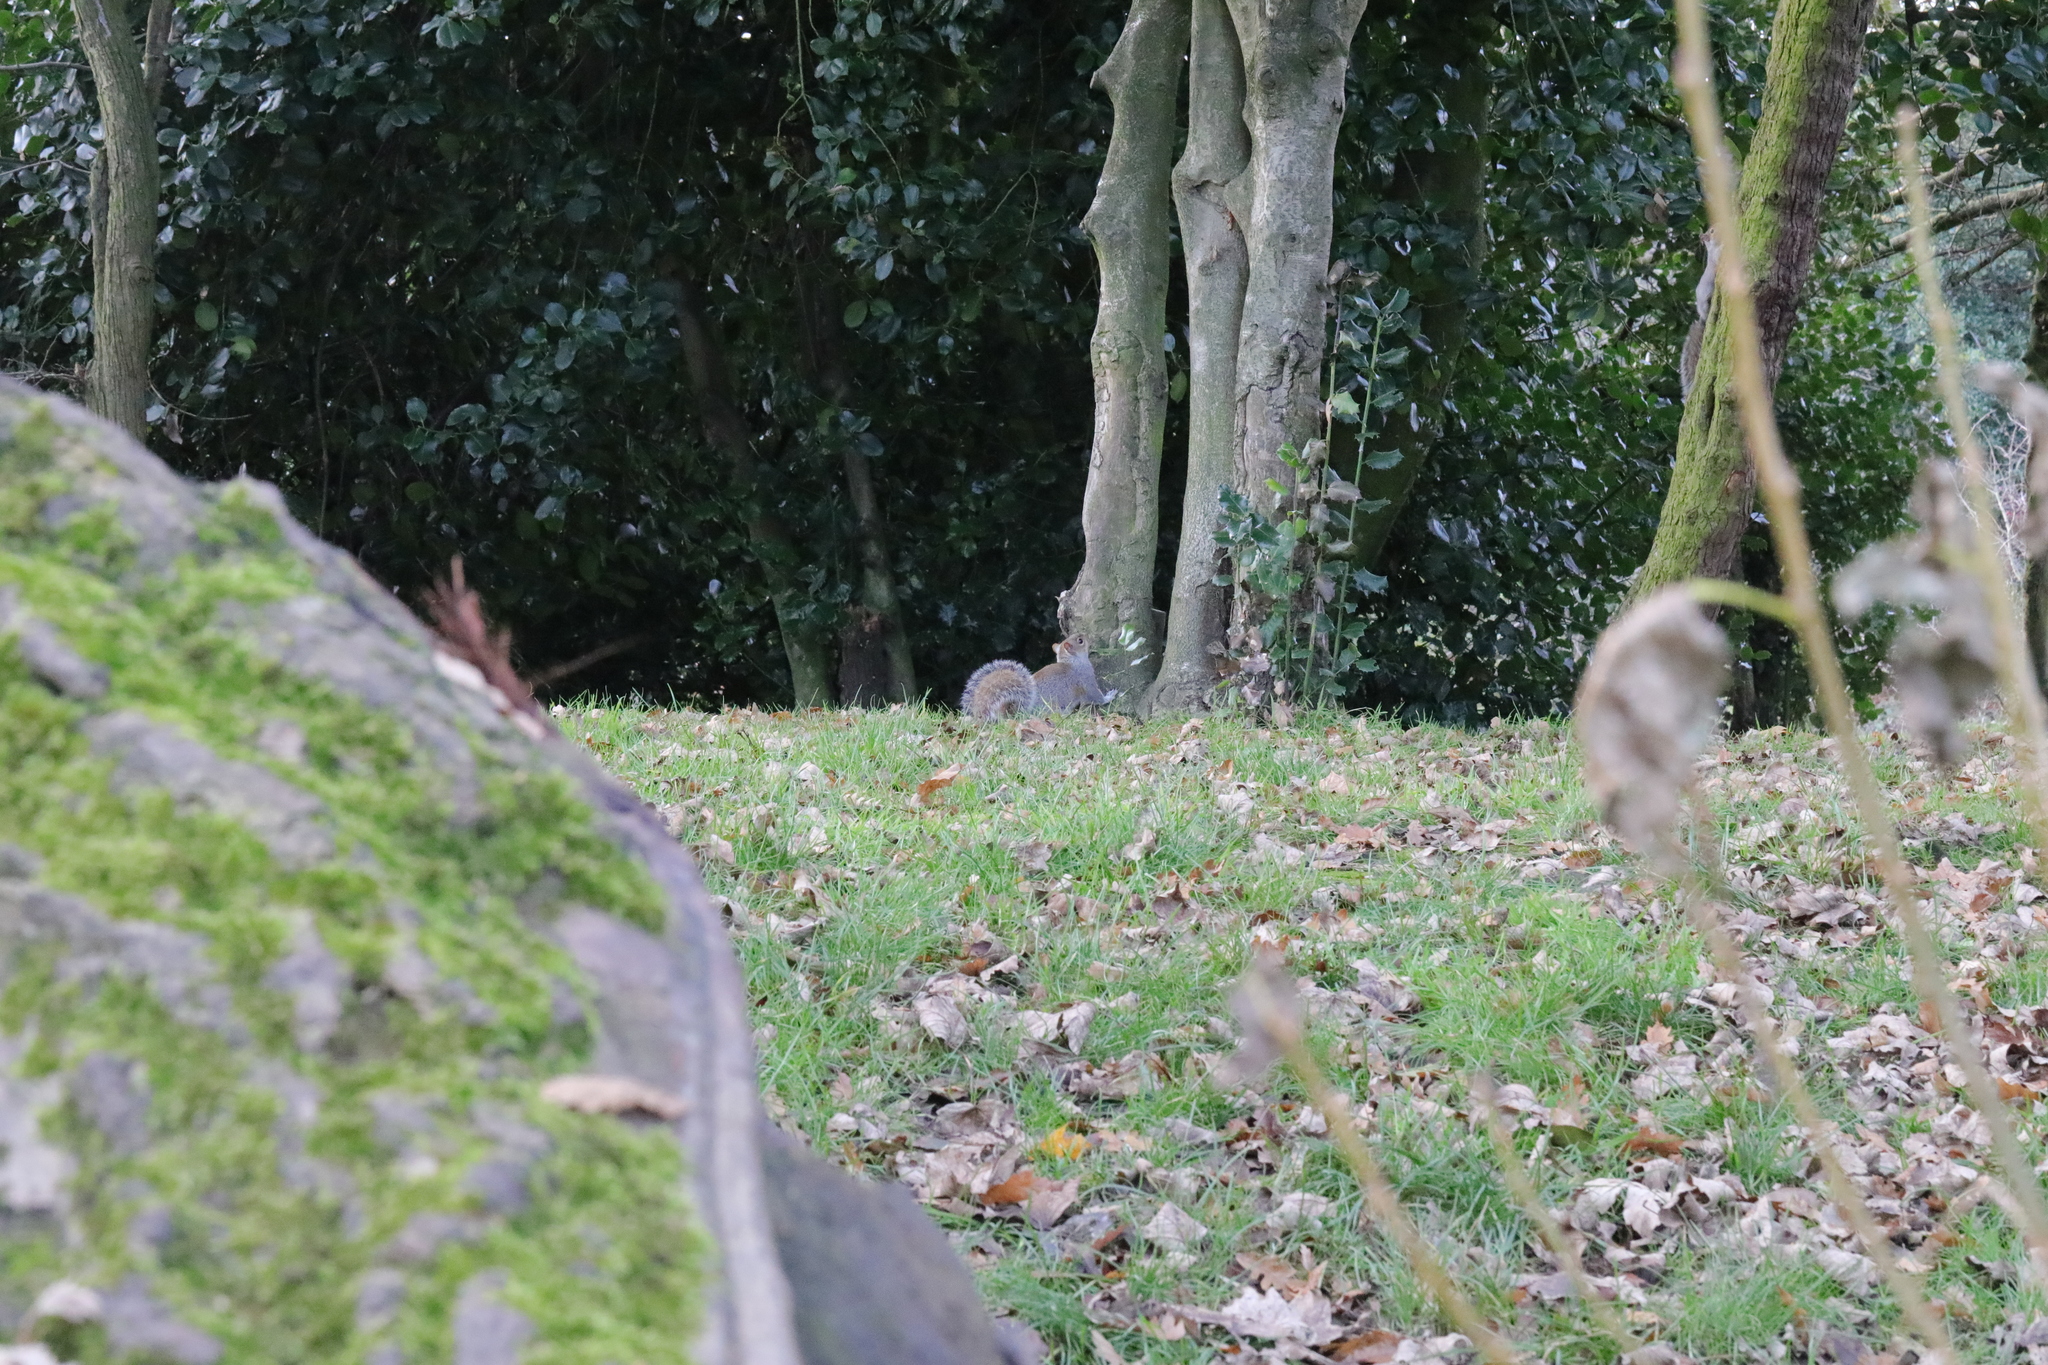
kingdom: Animalia
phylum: Chordata
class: Mammalia
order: Rodentia
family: Sciuridae
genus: Sciurus
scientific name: Sciurus carolinensis
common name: Eastern gray squirrel
